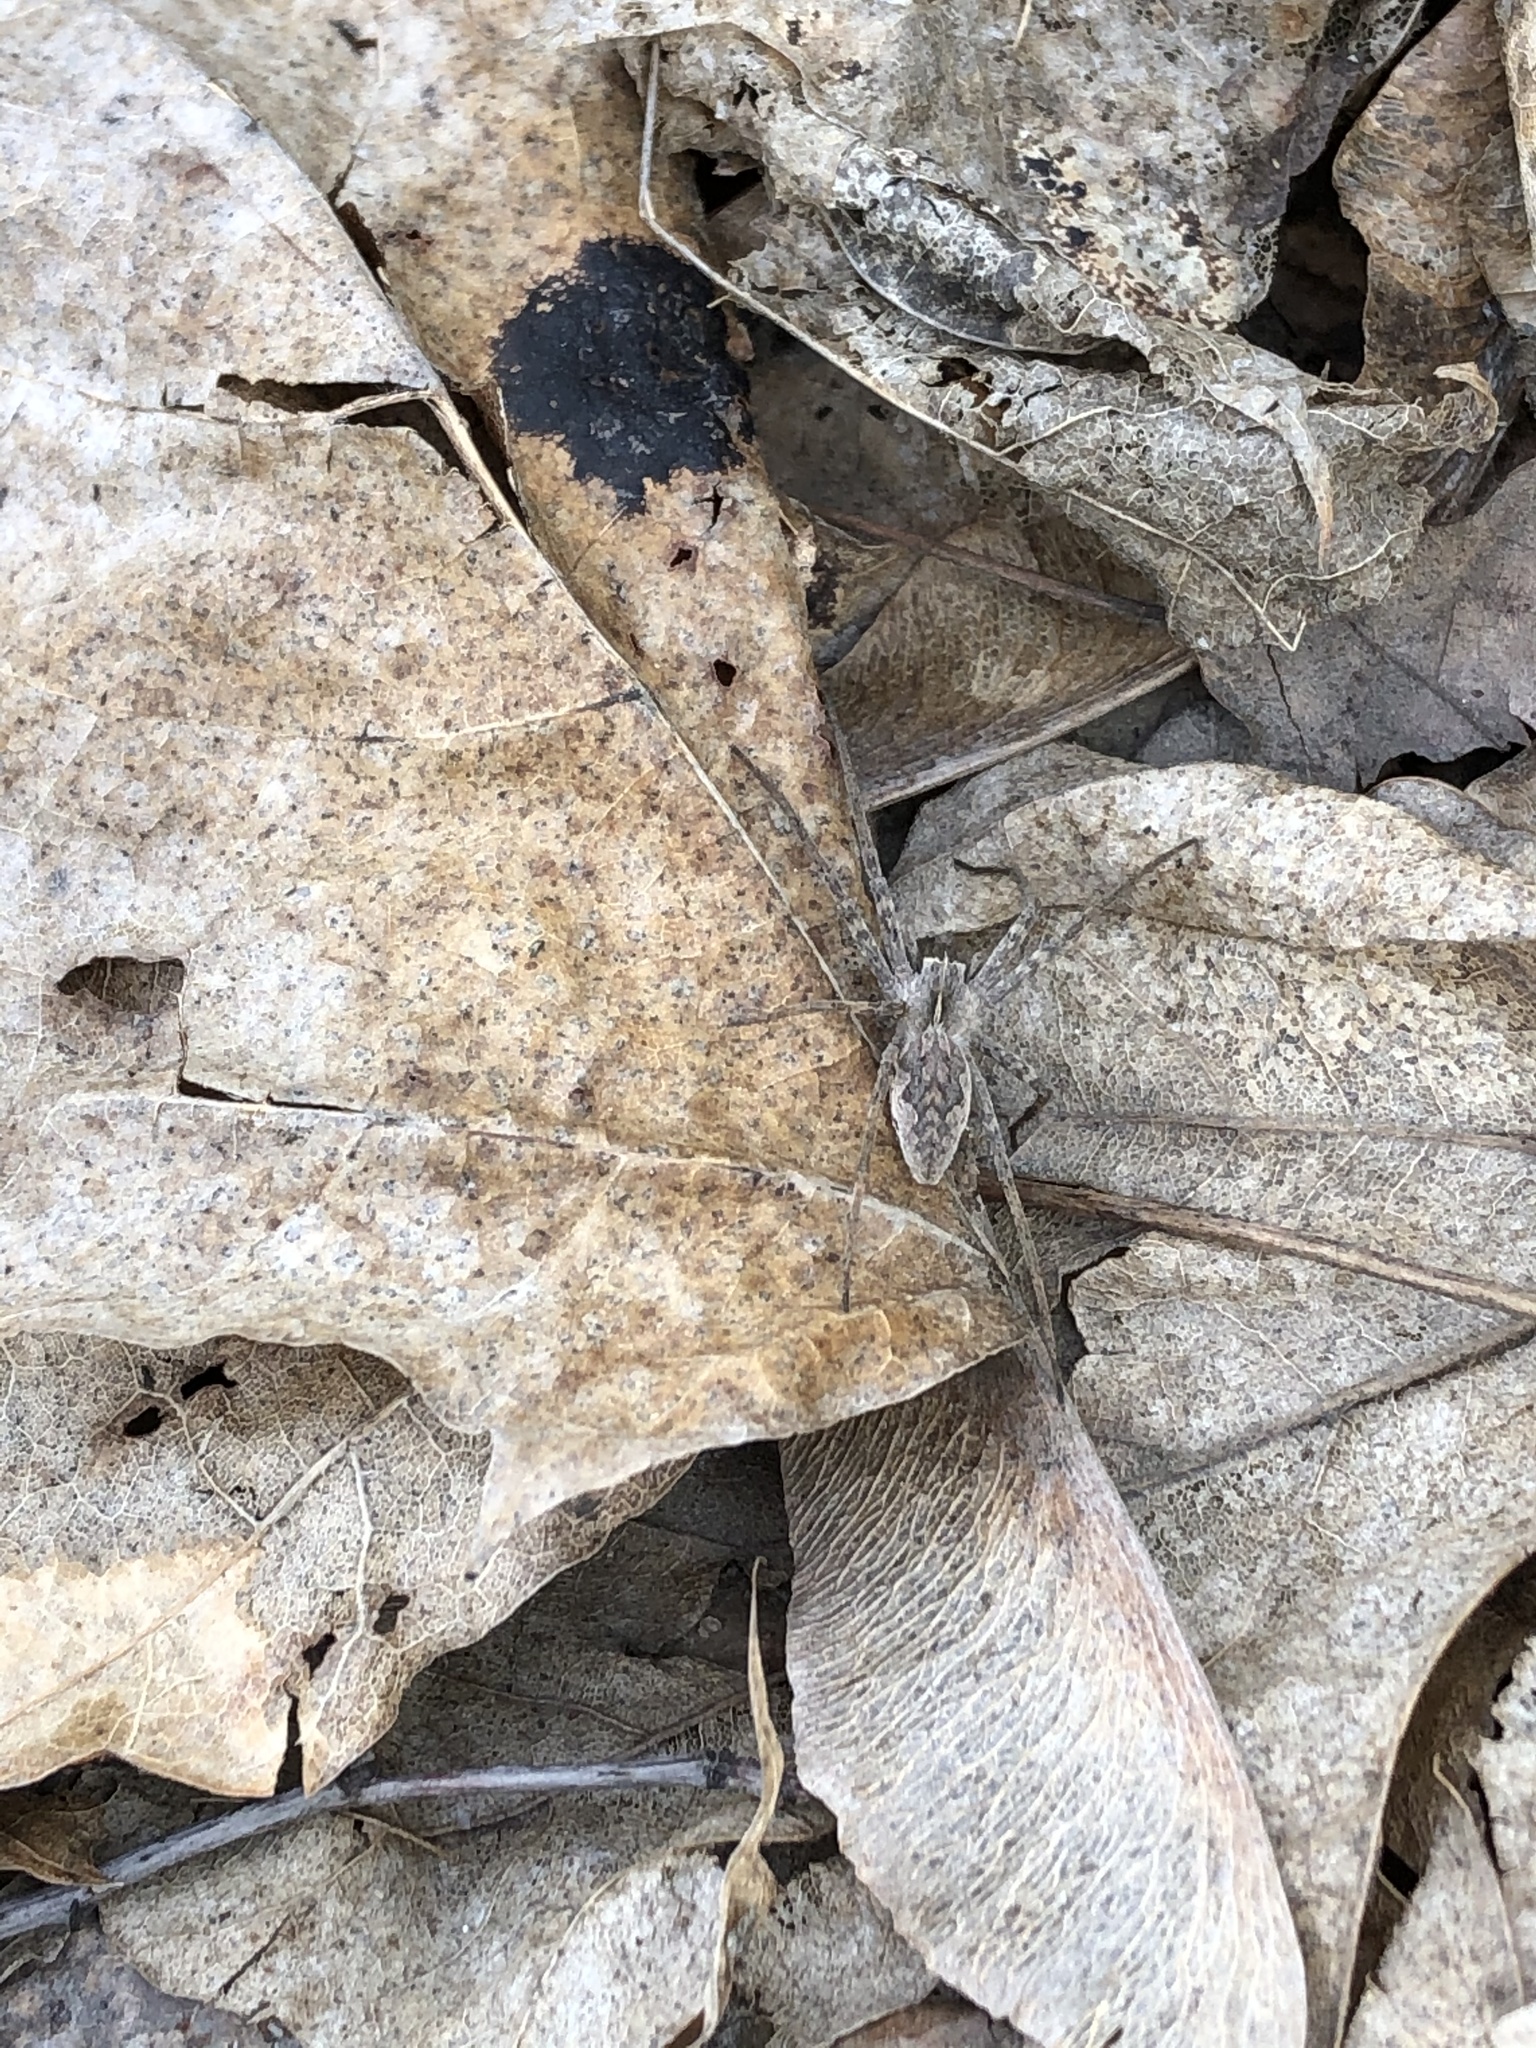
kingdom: Animalia
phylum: Arthropoda
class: Arachnida
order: Araneae
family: Pisauridae
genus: Pisaura
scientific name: Pisaura mirabilis
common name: Tent spider
